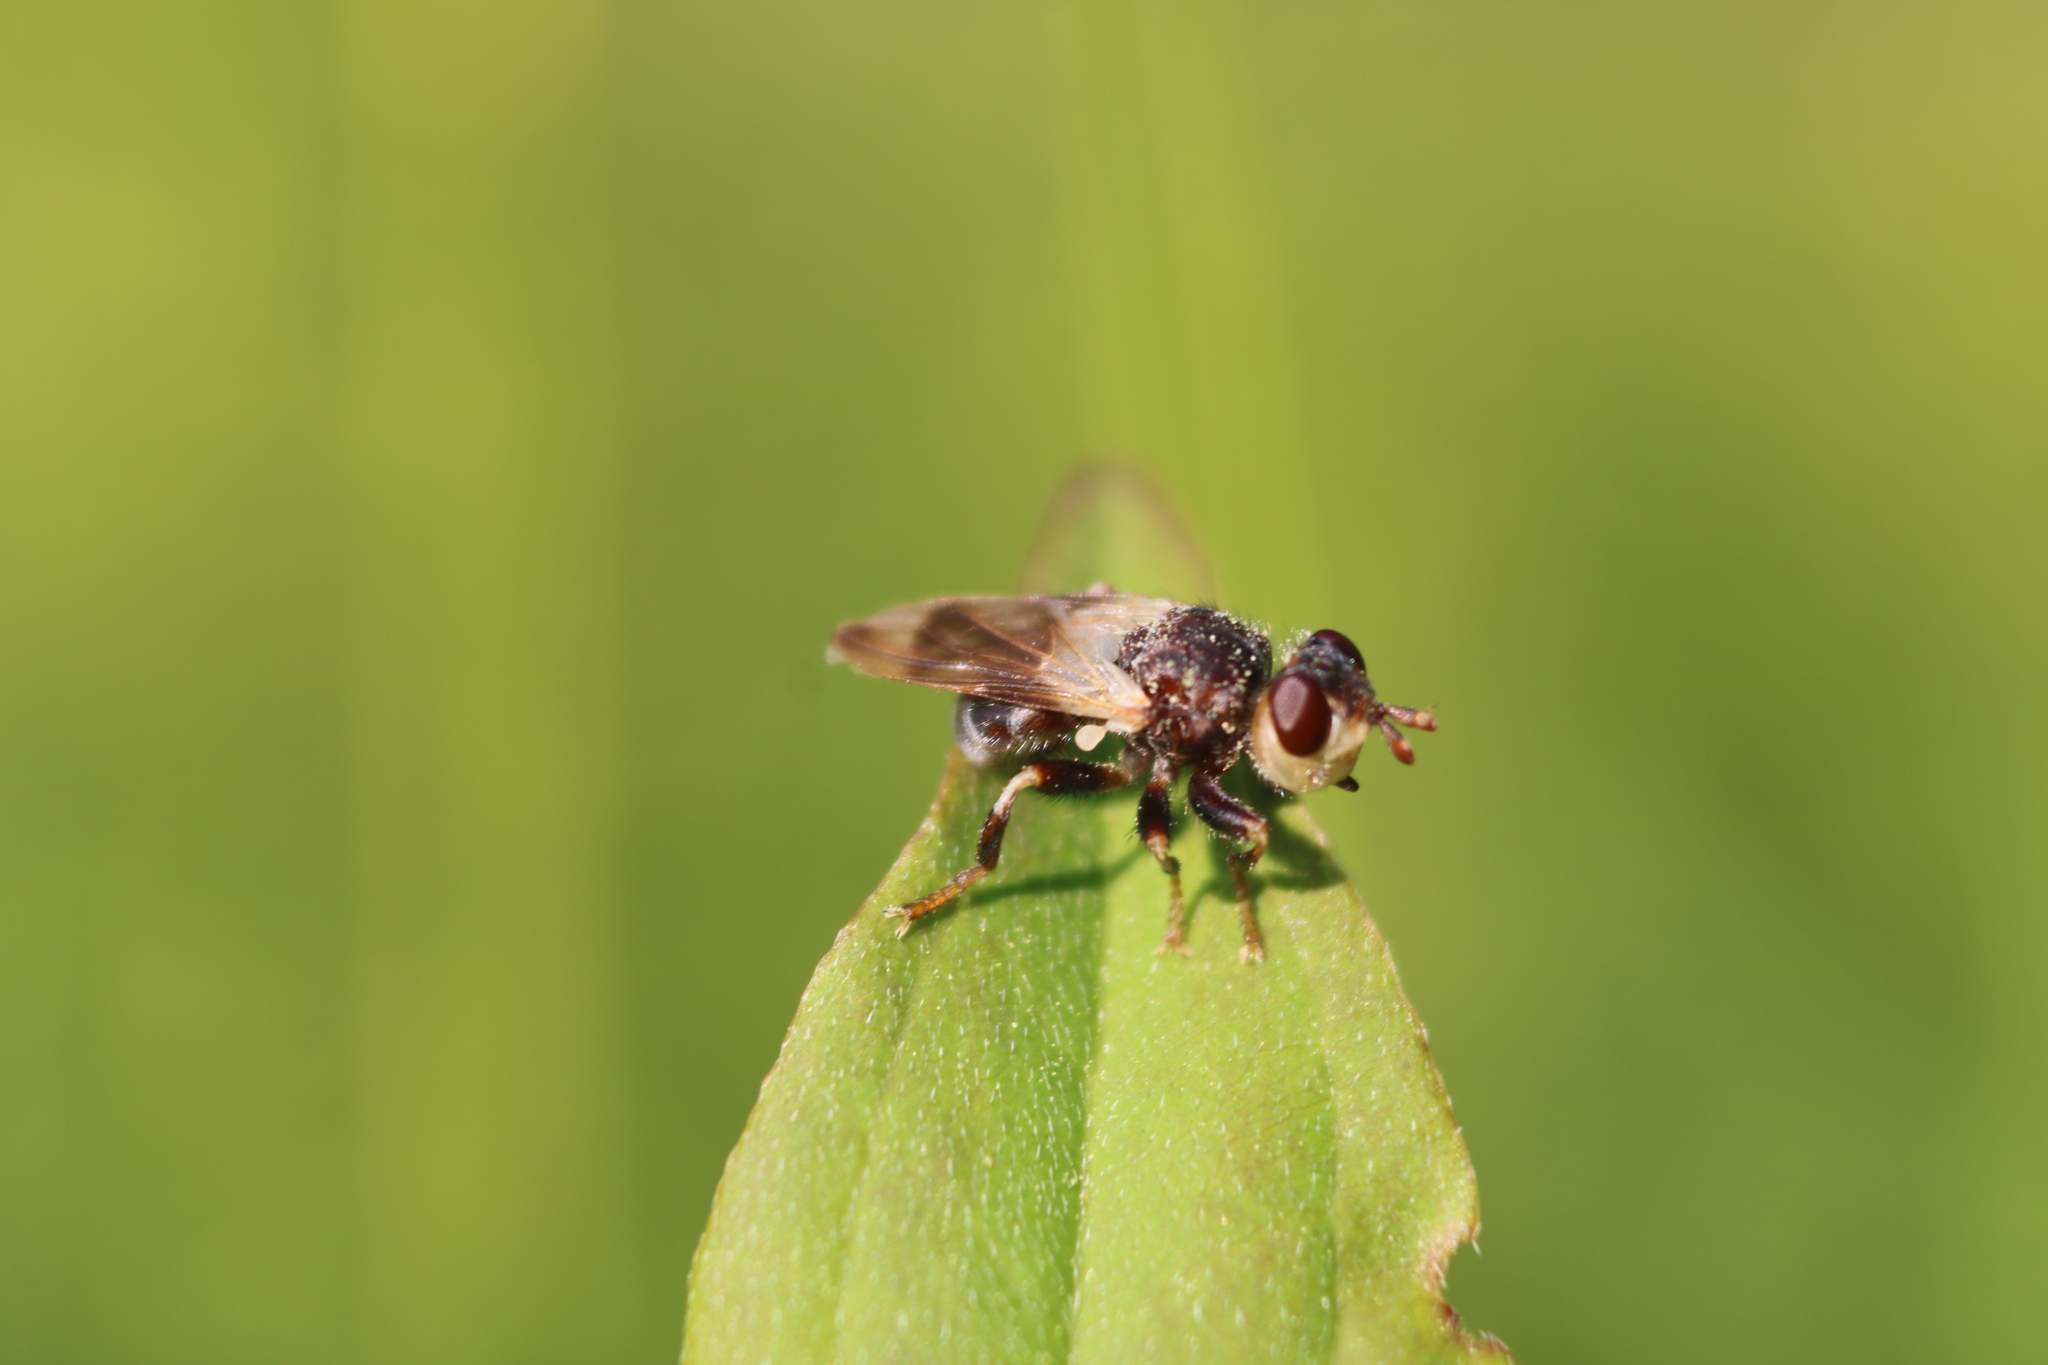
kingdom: Animalia
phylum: Arthropoda
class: Insecta
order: Diptera
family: Conopidae
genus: Myopa
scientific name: Myopa vesiculosa
